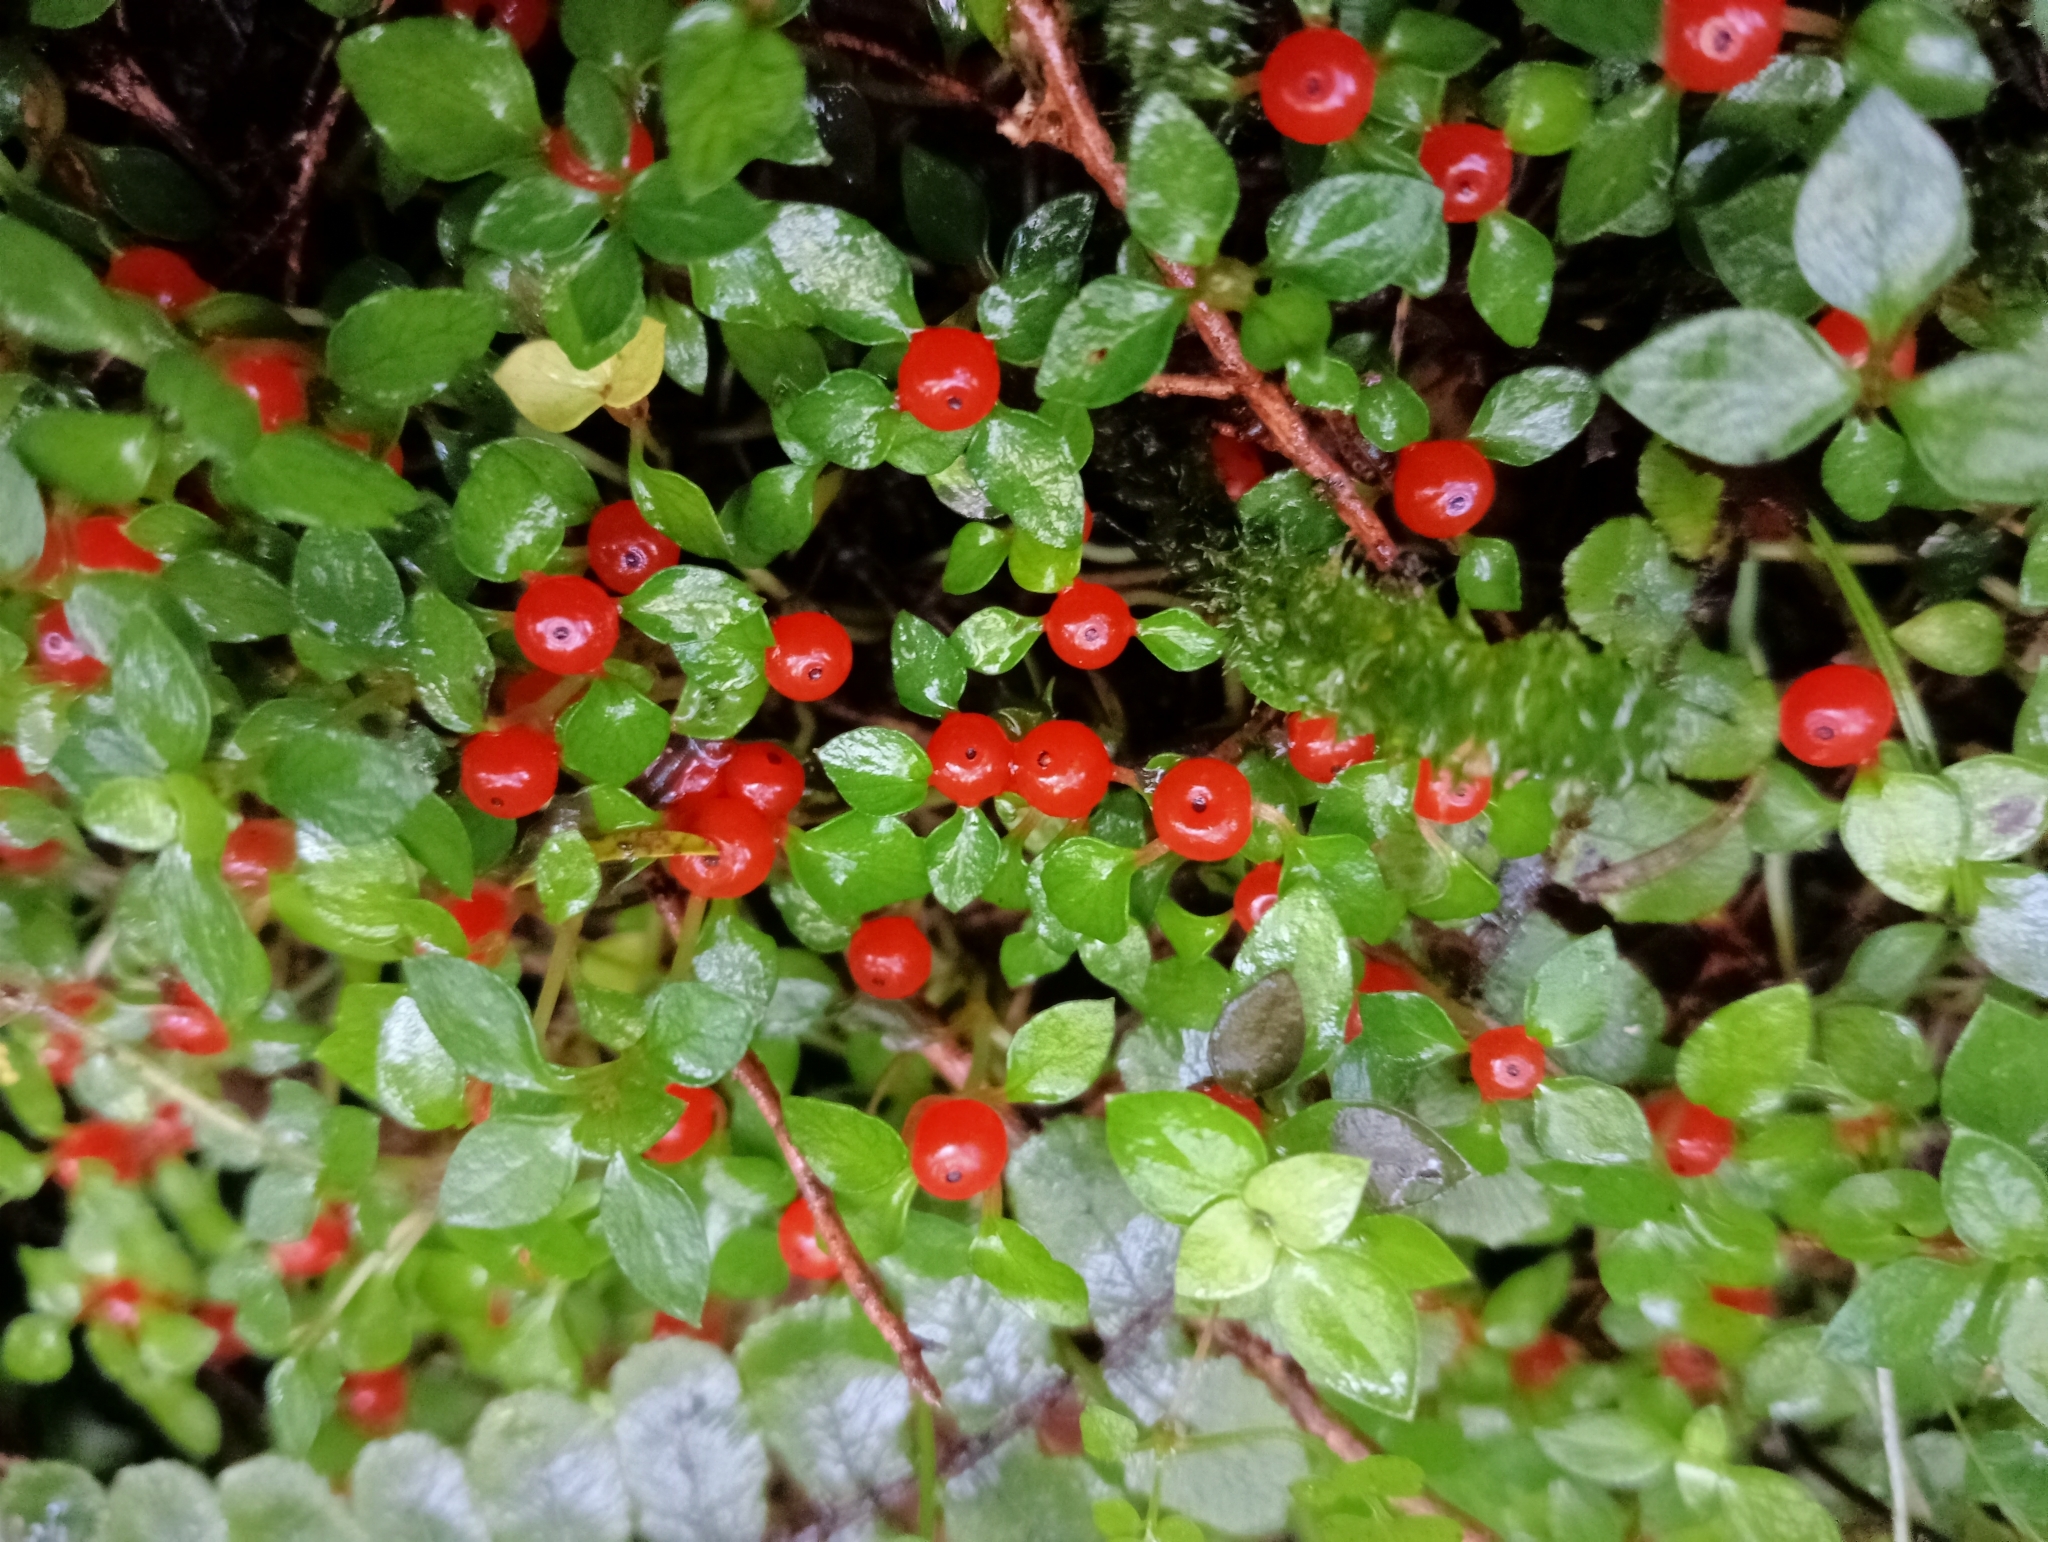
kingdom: Plantae
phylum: Tracheophyta
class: Magnoliopsida
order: Gentianales
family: Rubiaceae
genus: Nertera
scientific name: Nertera granadensis
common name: Beadplant
